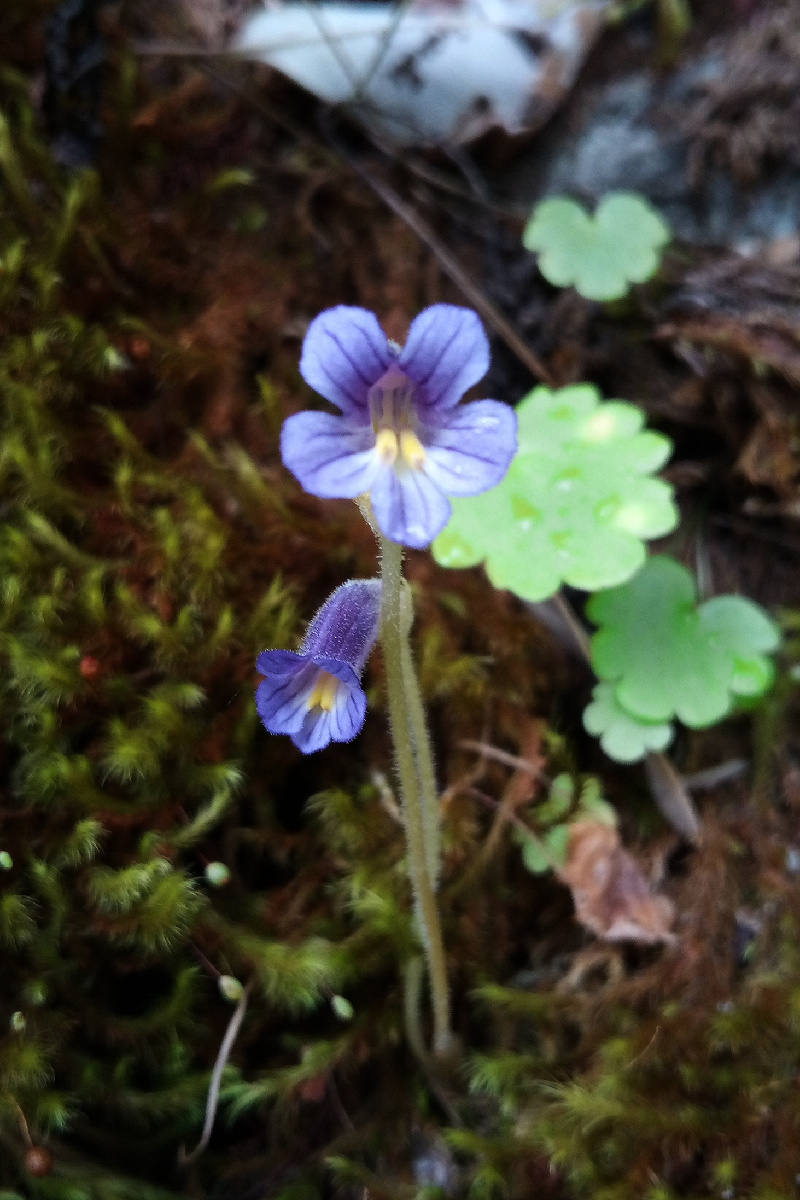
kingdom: Plantae
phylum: Tracheophyta
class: Magnoliopsida
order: Lamiales
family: Orobanchaceae
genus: Aphyllon
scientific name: Aphyllon uniflorum
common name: One-flowered broomrape
